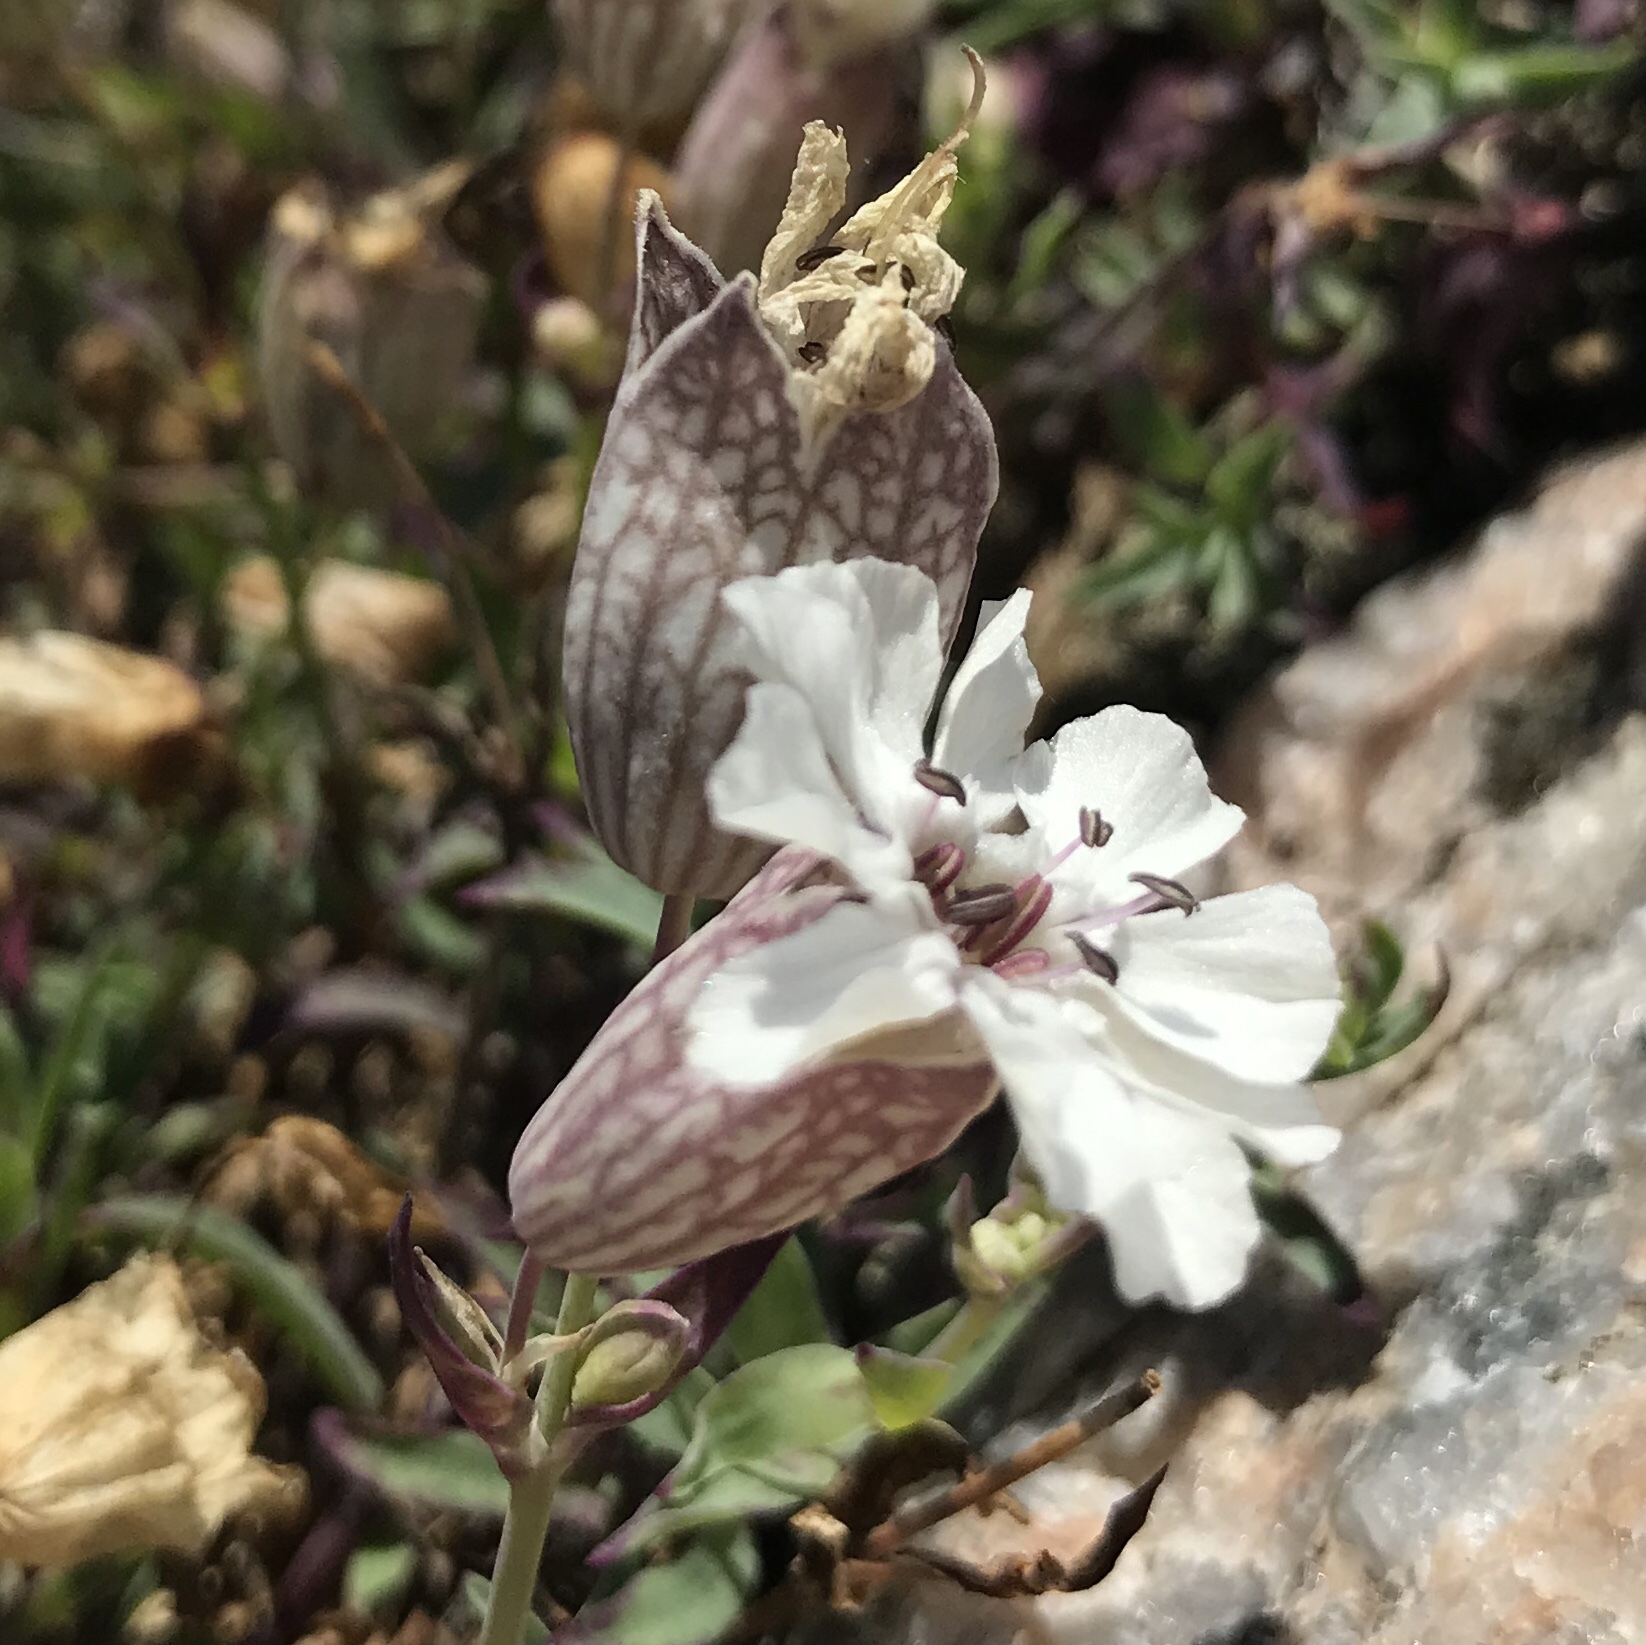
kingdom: Plantae
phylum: Tracheophyta
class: Magnoliopsida
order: Caryophyllales
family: Caryophyllaceae
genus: Silene
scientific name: Silene uniflora
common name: Sea campion
